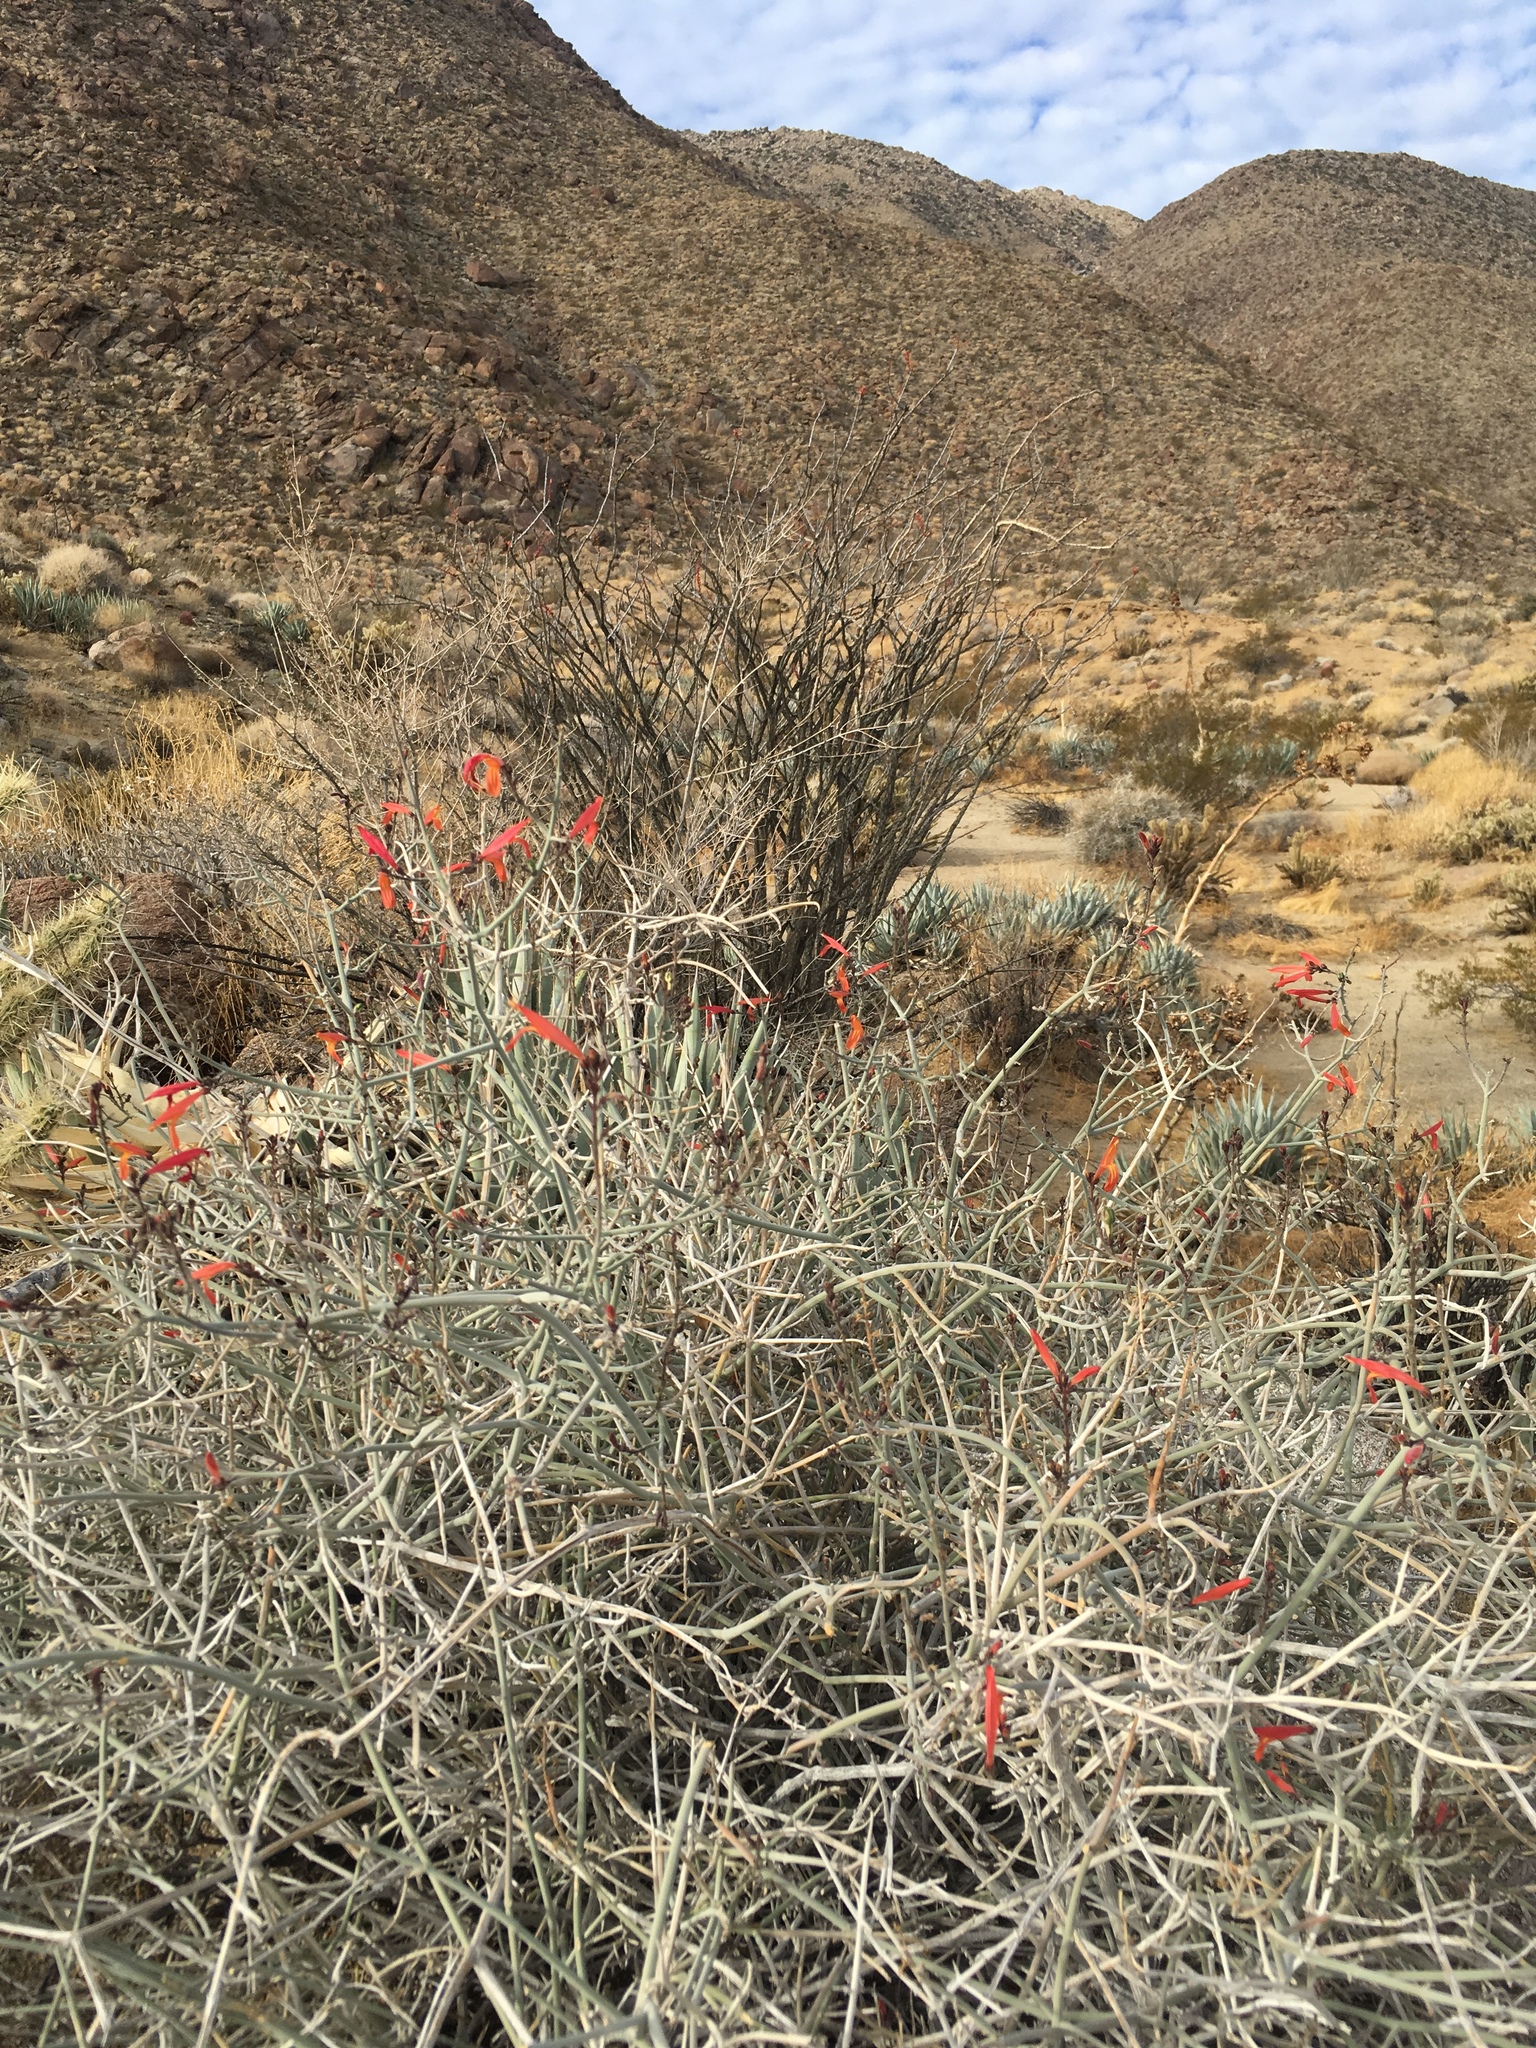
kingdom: Plantae
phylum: Tracheophyta
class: Magnoliopsida
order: Lamiales
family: Acanthaceae
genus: Justicia
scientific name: Justicia californica
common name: Chuparosa-honeysuckle
